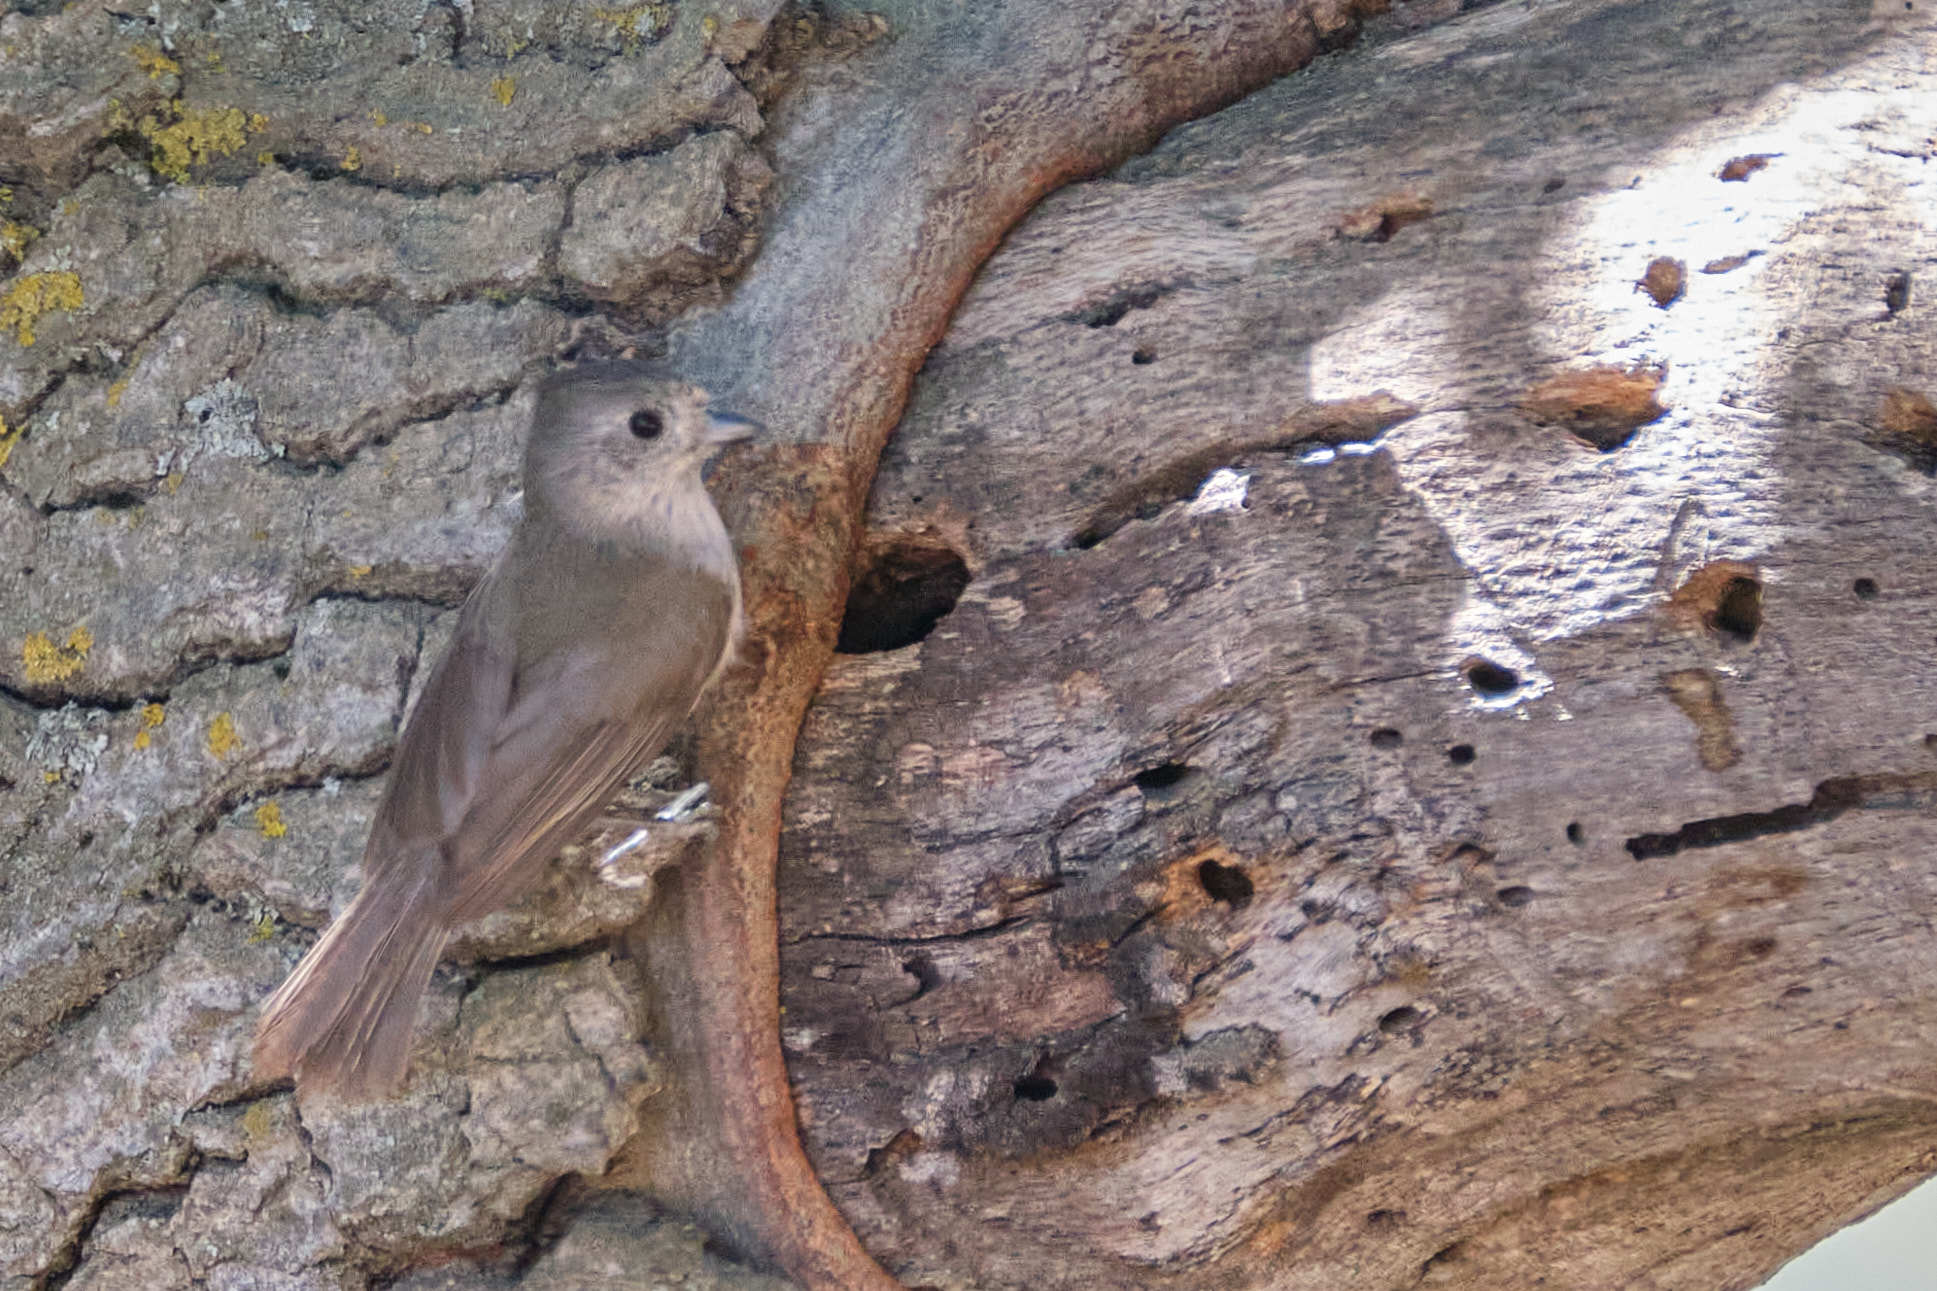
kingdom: Animalia
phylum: Chordata
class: Aves
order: Passeriformes
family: Paridae
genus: Baeolophus
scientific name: Baeolophus inornatus
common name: Oak titmouse
